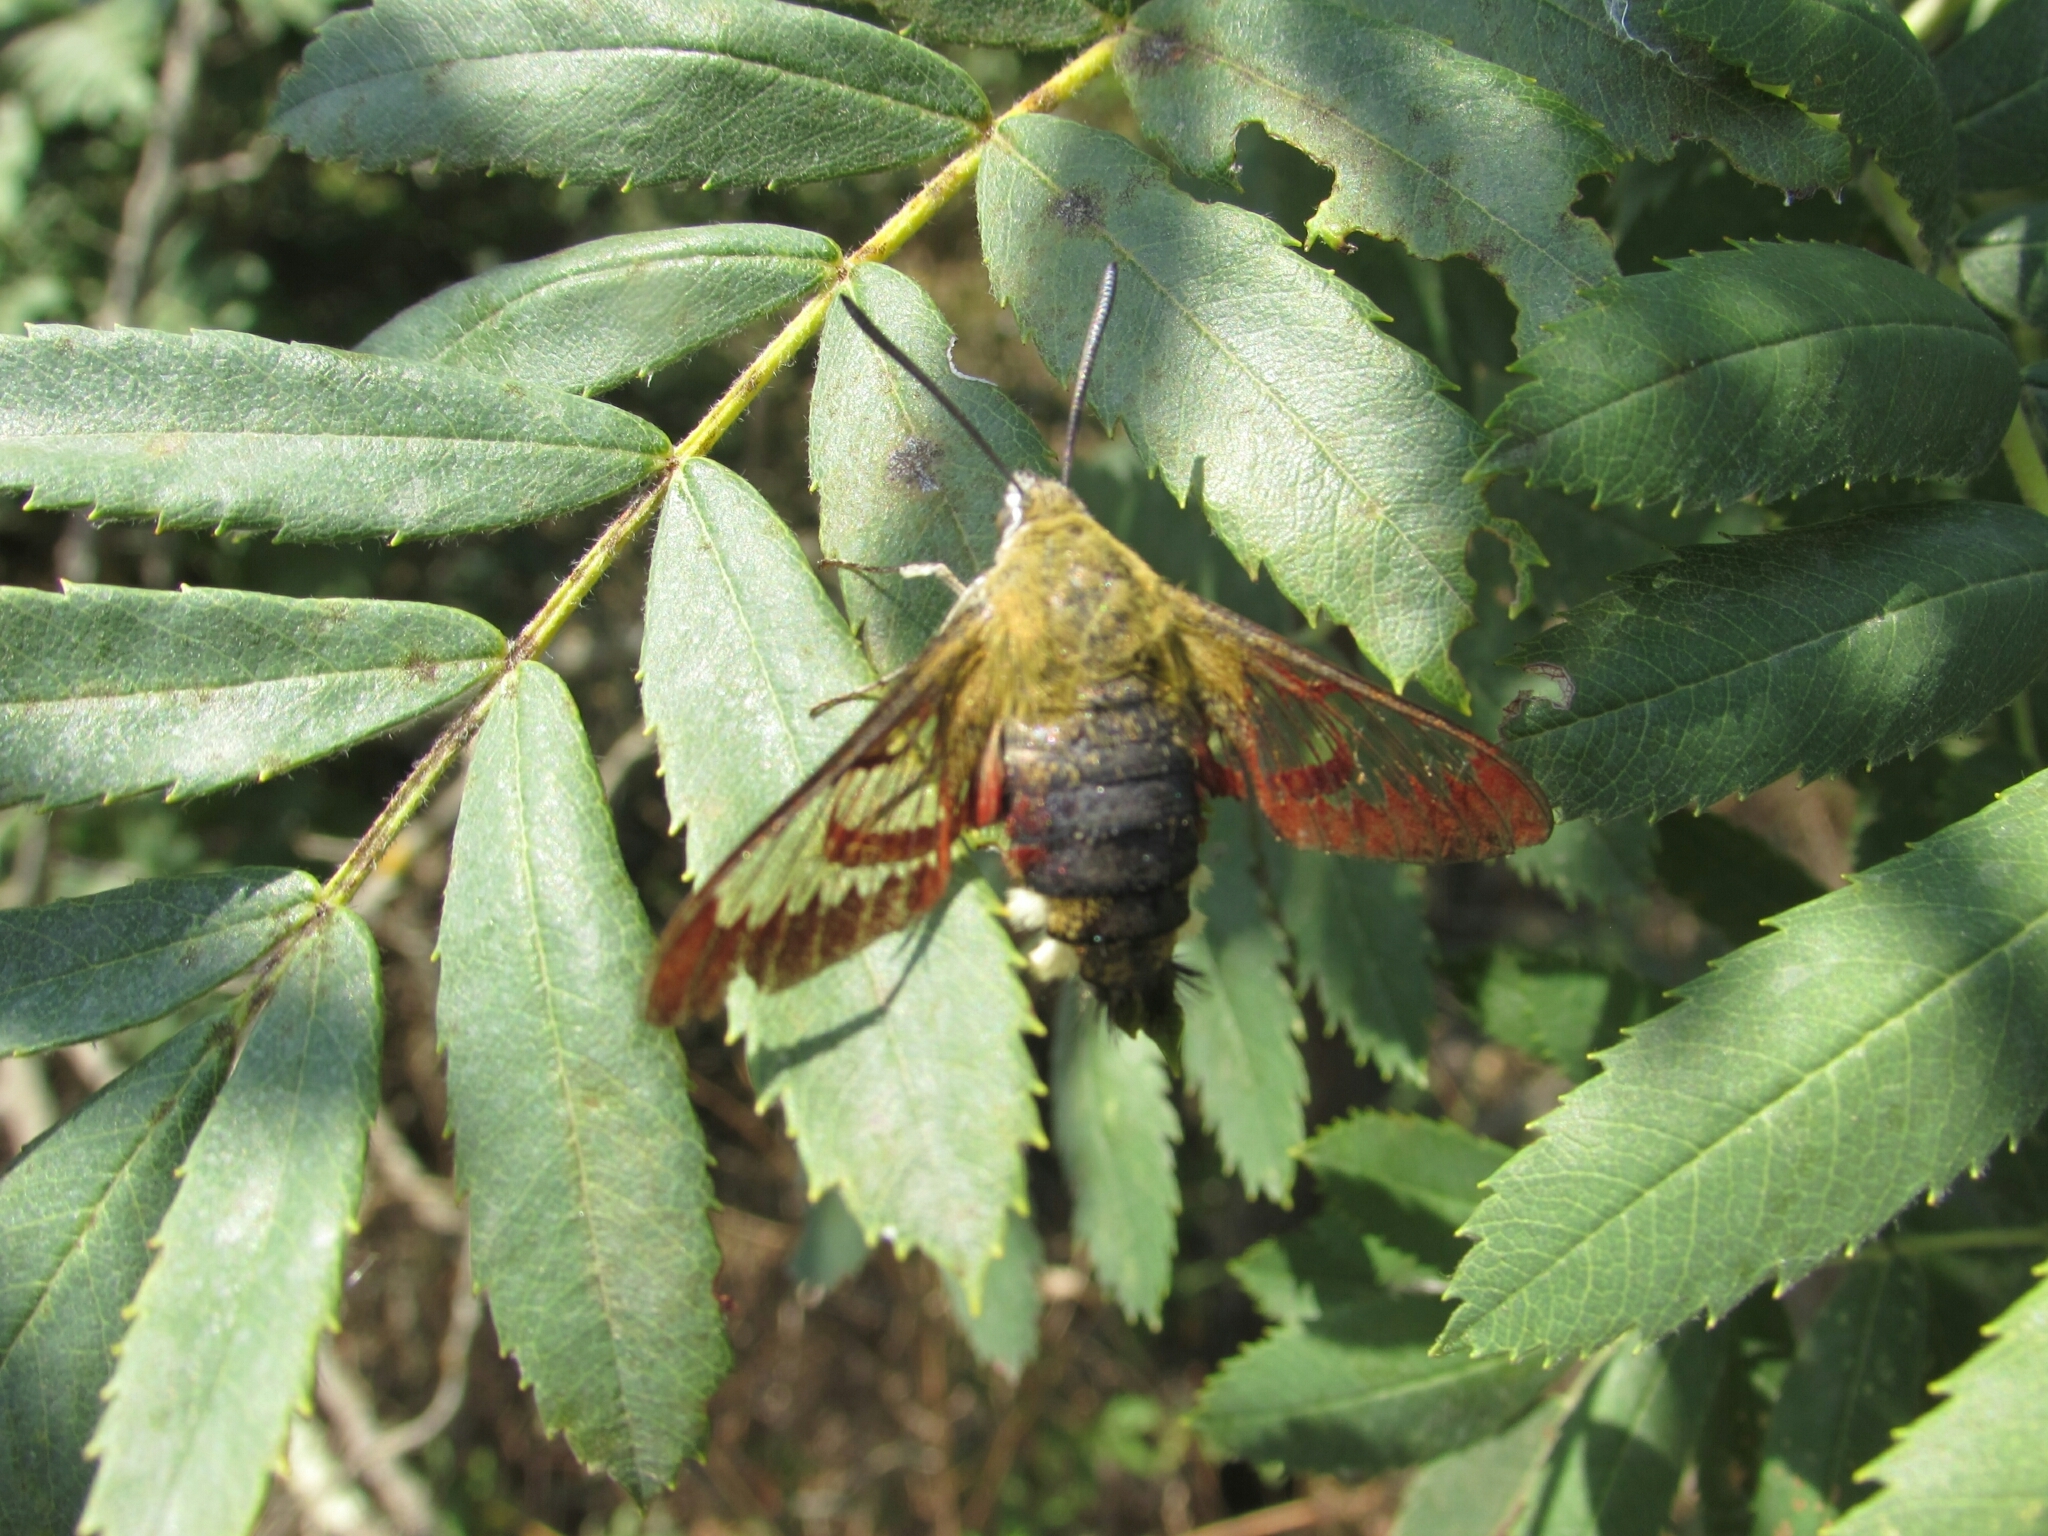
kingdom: Animalia
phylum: Arthropoda
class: Insecta
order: Lepidoptera
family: Sphingidae
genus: Hemaris
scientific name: Hemaris fuciformis
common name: Broad-bordered bee hawk-moth
